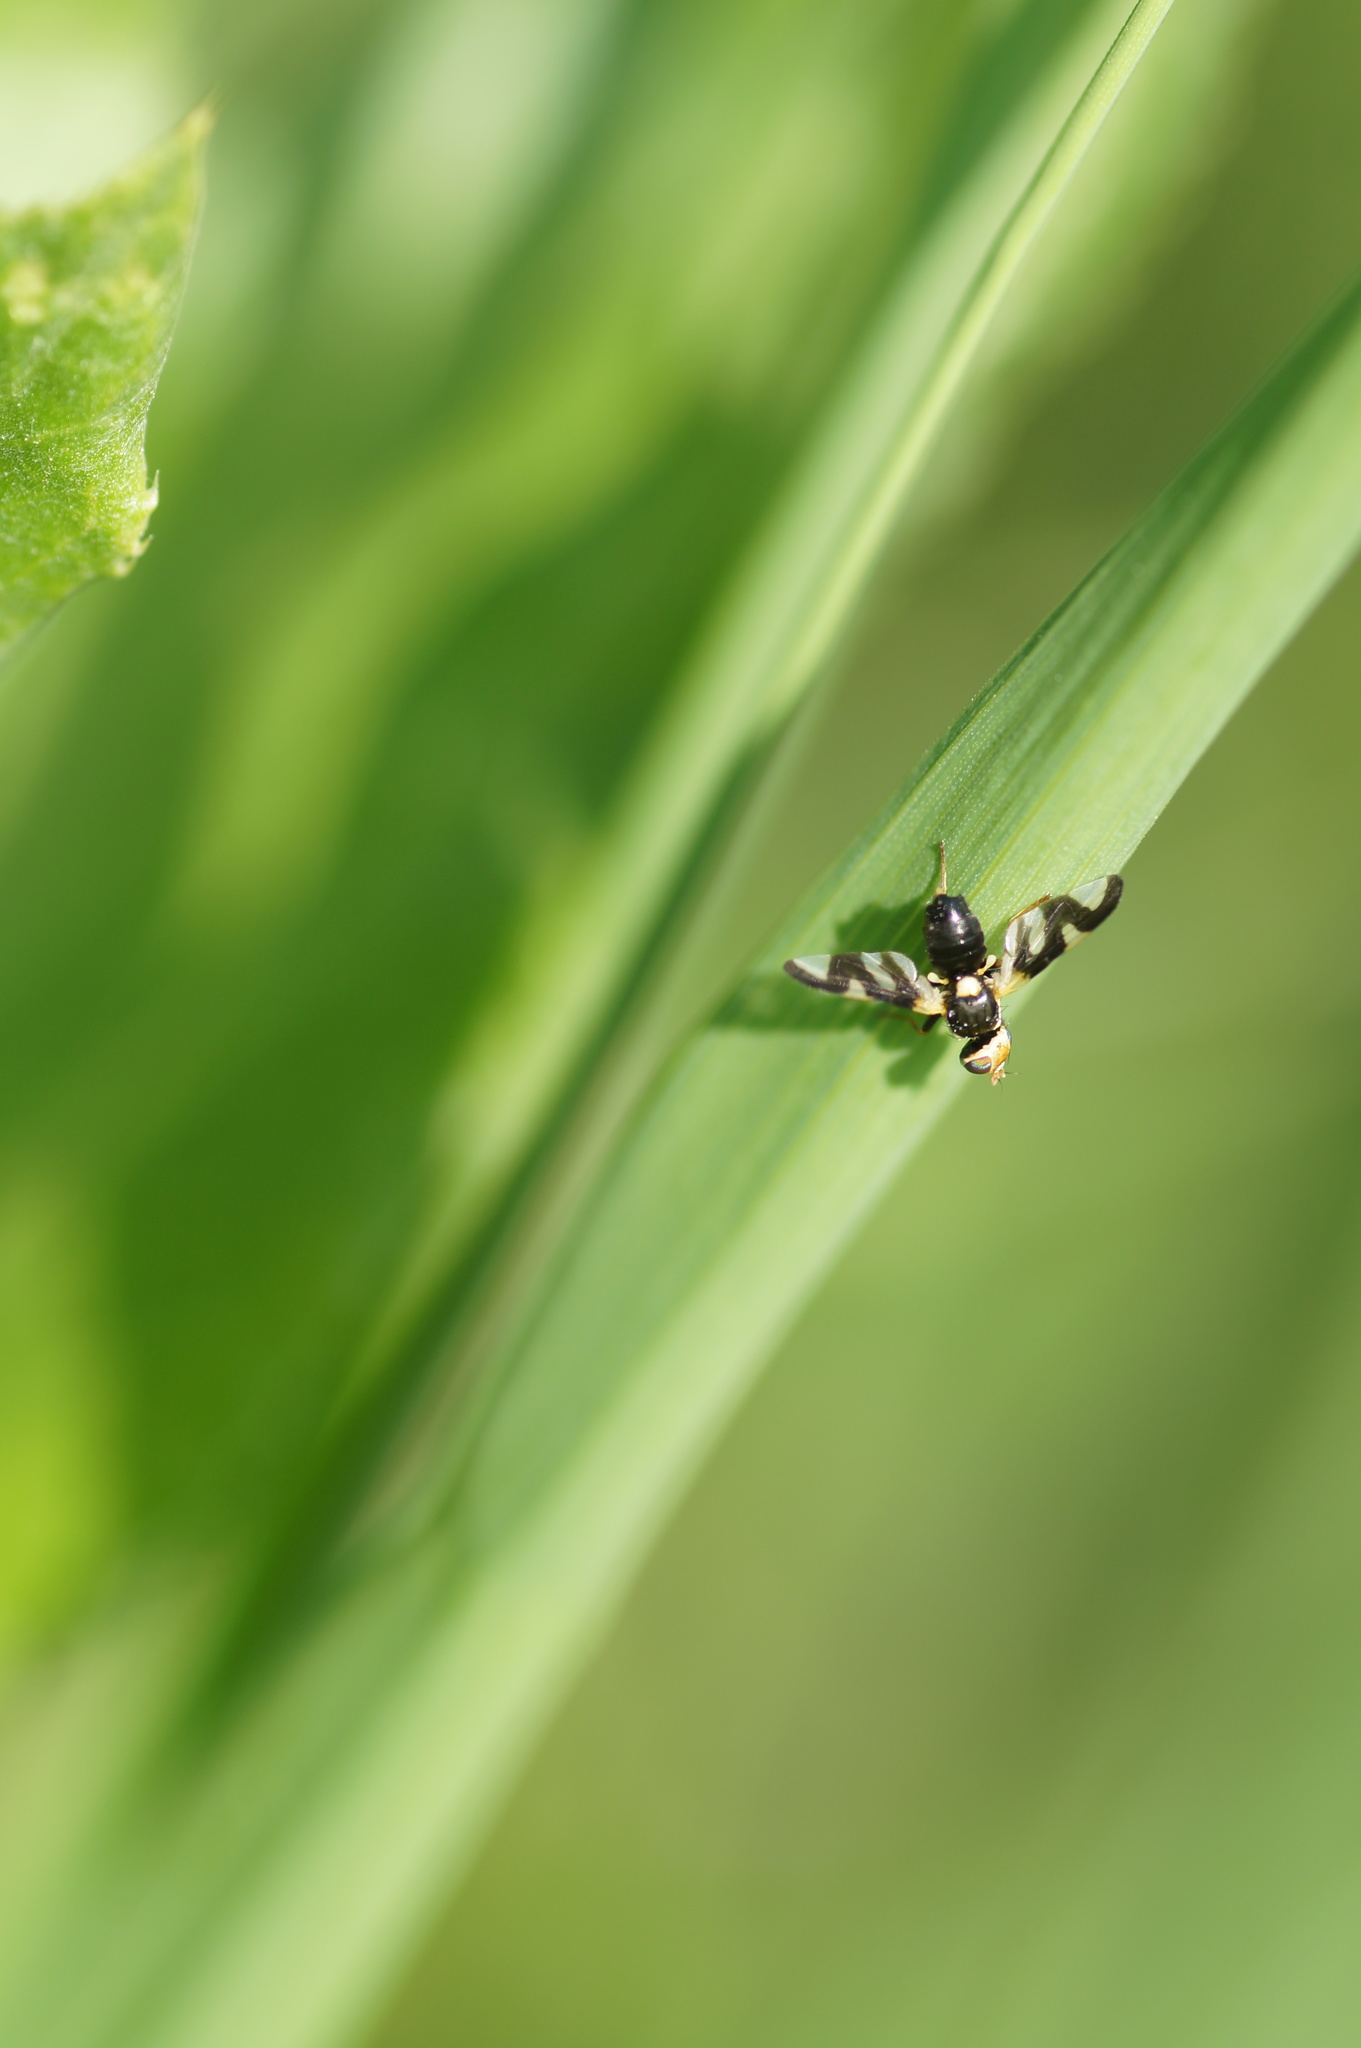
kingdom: Animalia
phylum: Arthropoda
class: Insecta
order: Diptera
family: Tephritidae
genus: Urophora
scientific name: Urophora cardui
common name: Fruit fly
